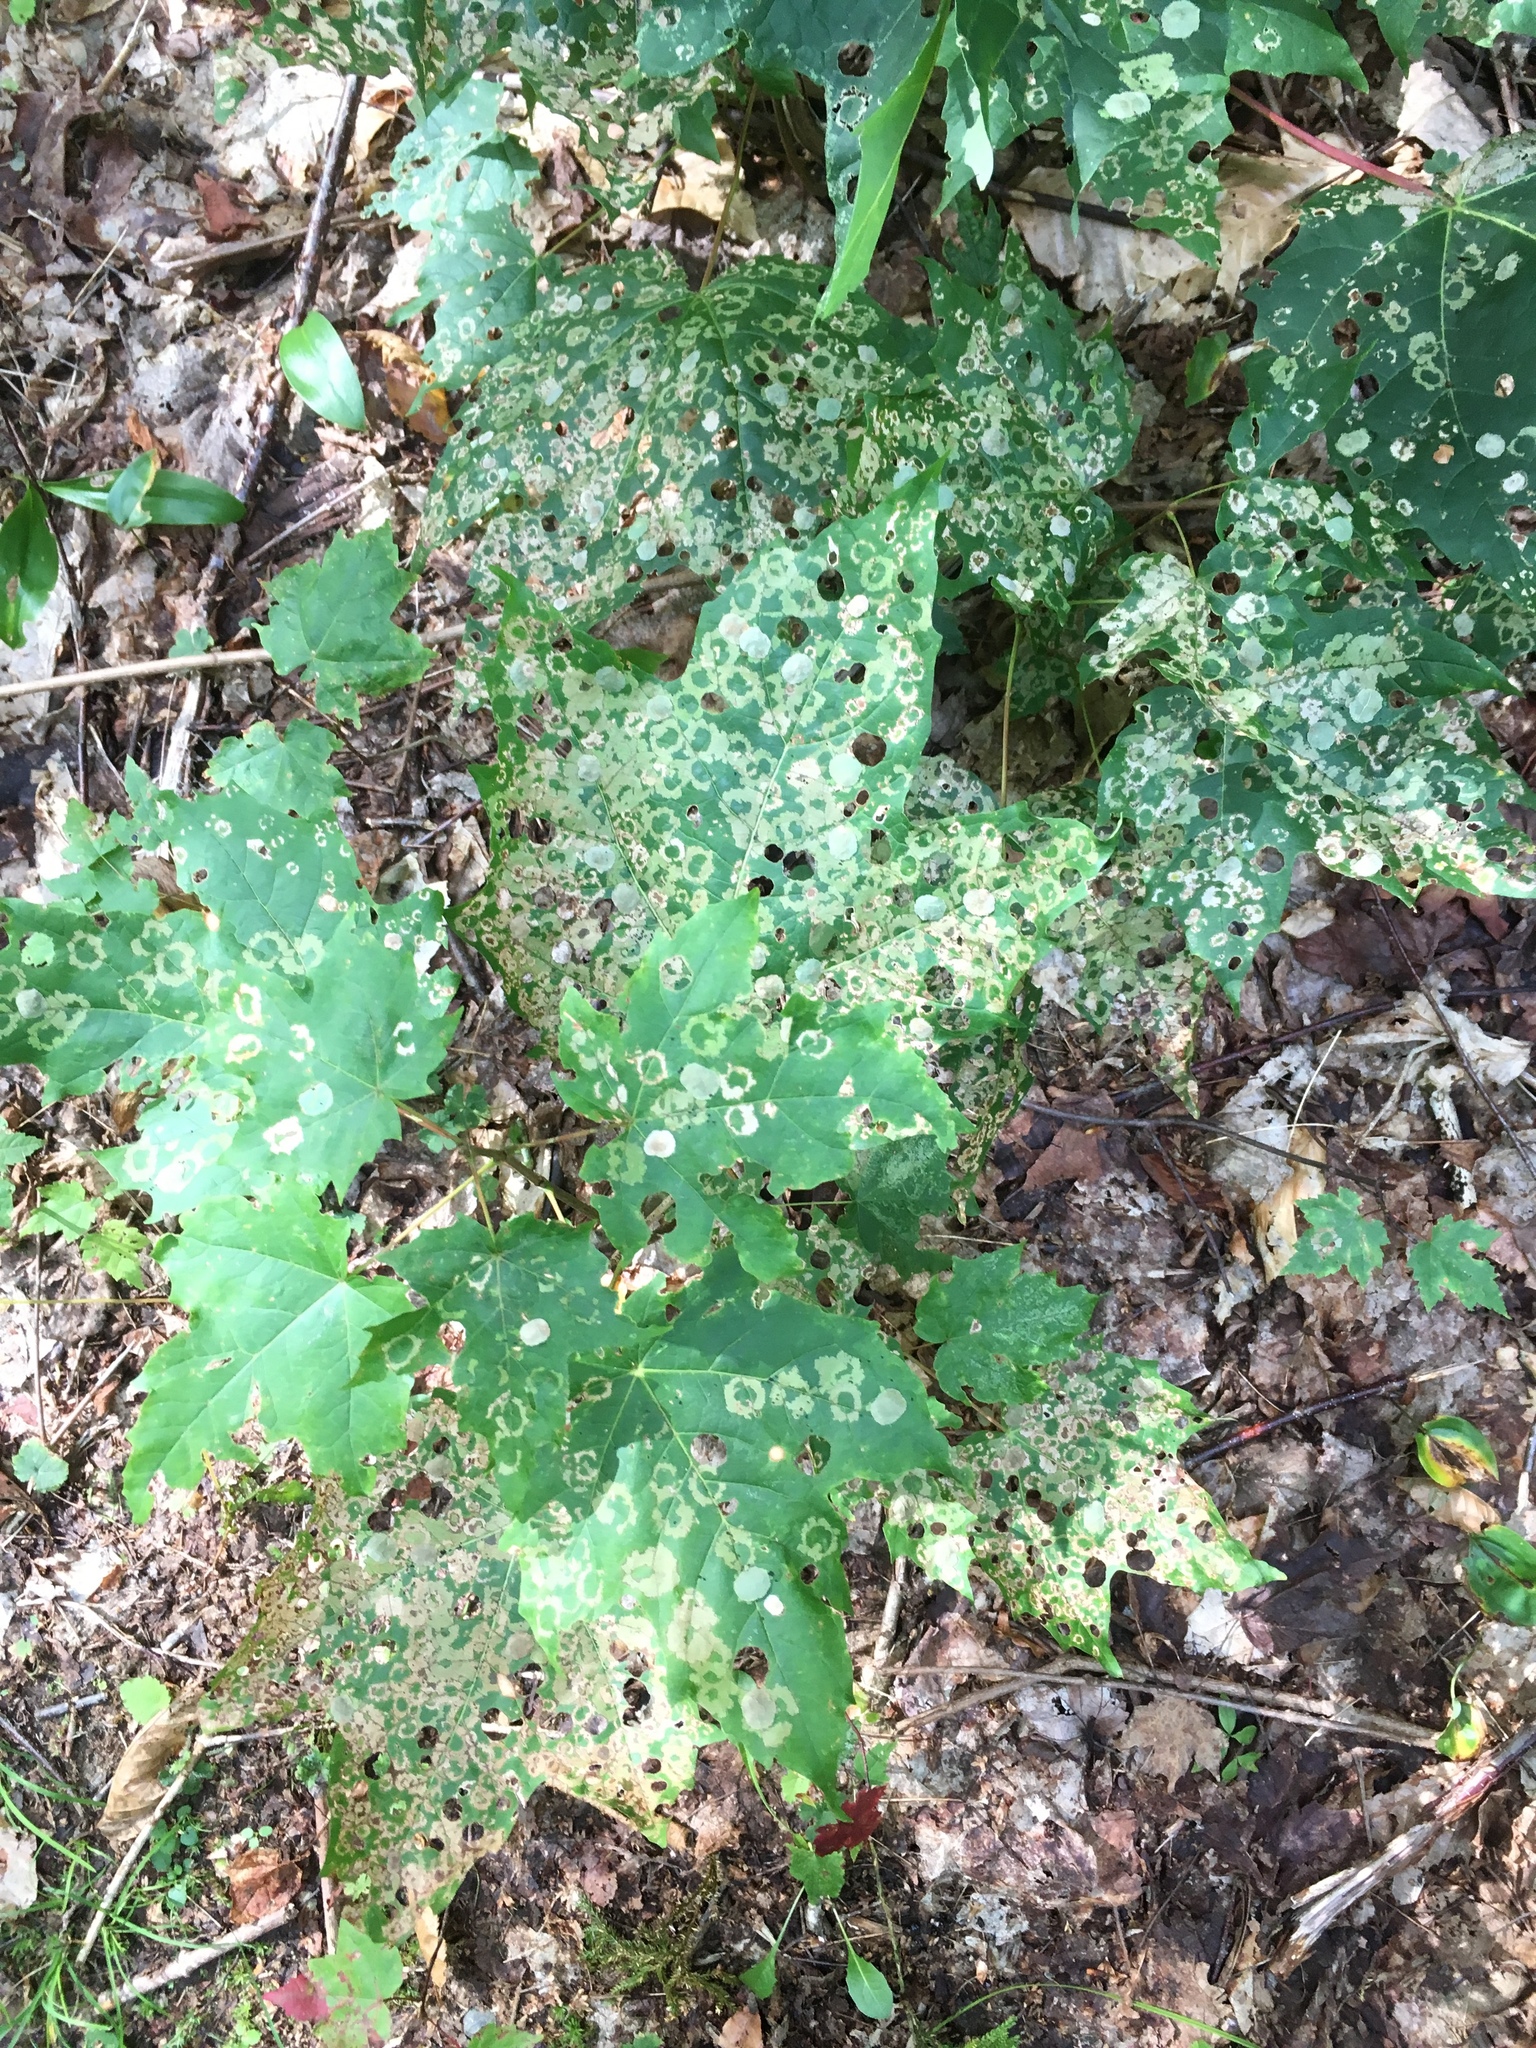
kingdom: Animalia
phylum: Arthropoda
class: Insecta
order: Lepidoptera
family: Incurvariidae
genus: Paraclemensia
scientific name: Paraclemensia acerifoliella
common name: Maple leafcutter
